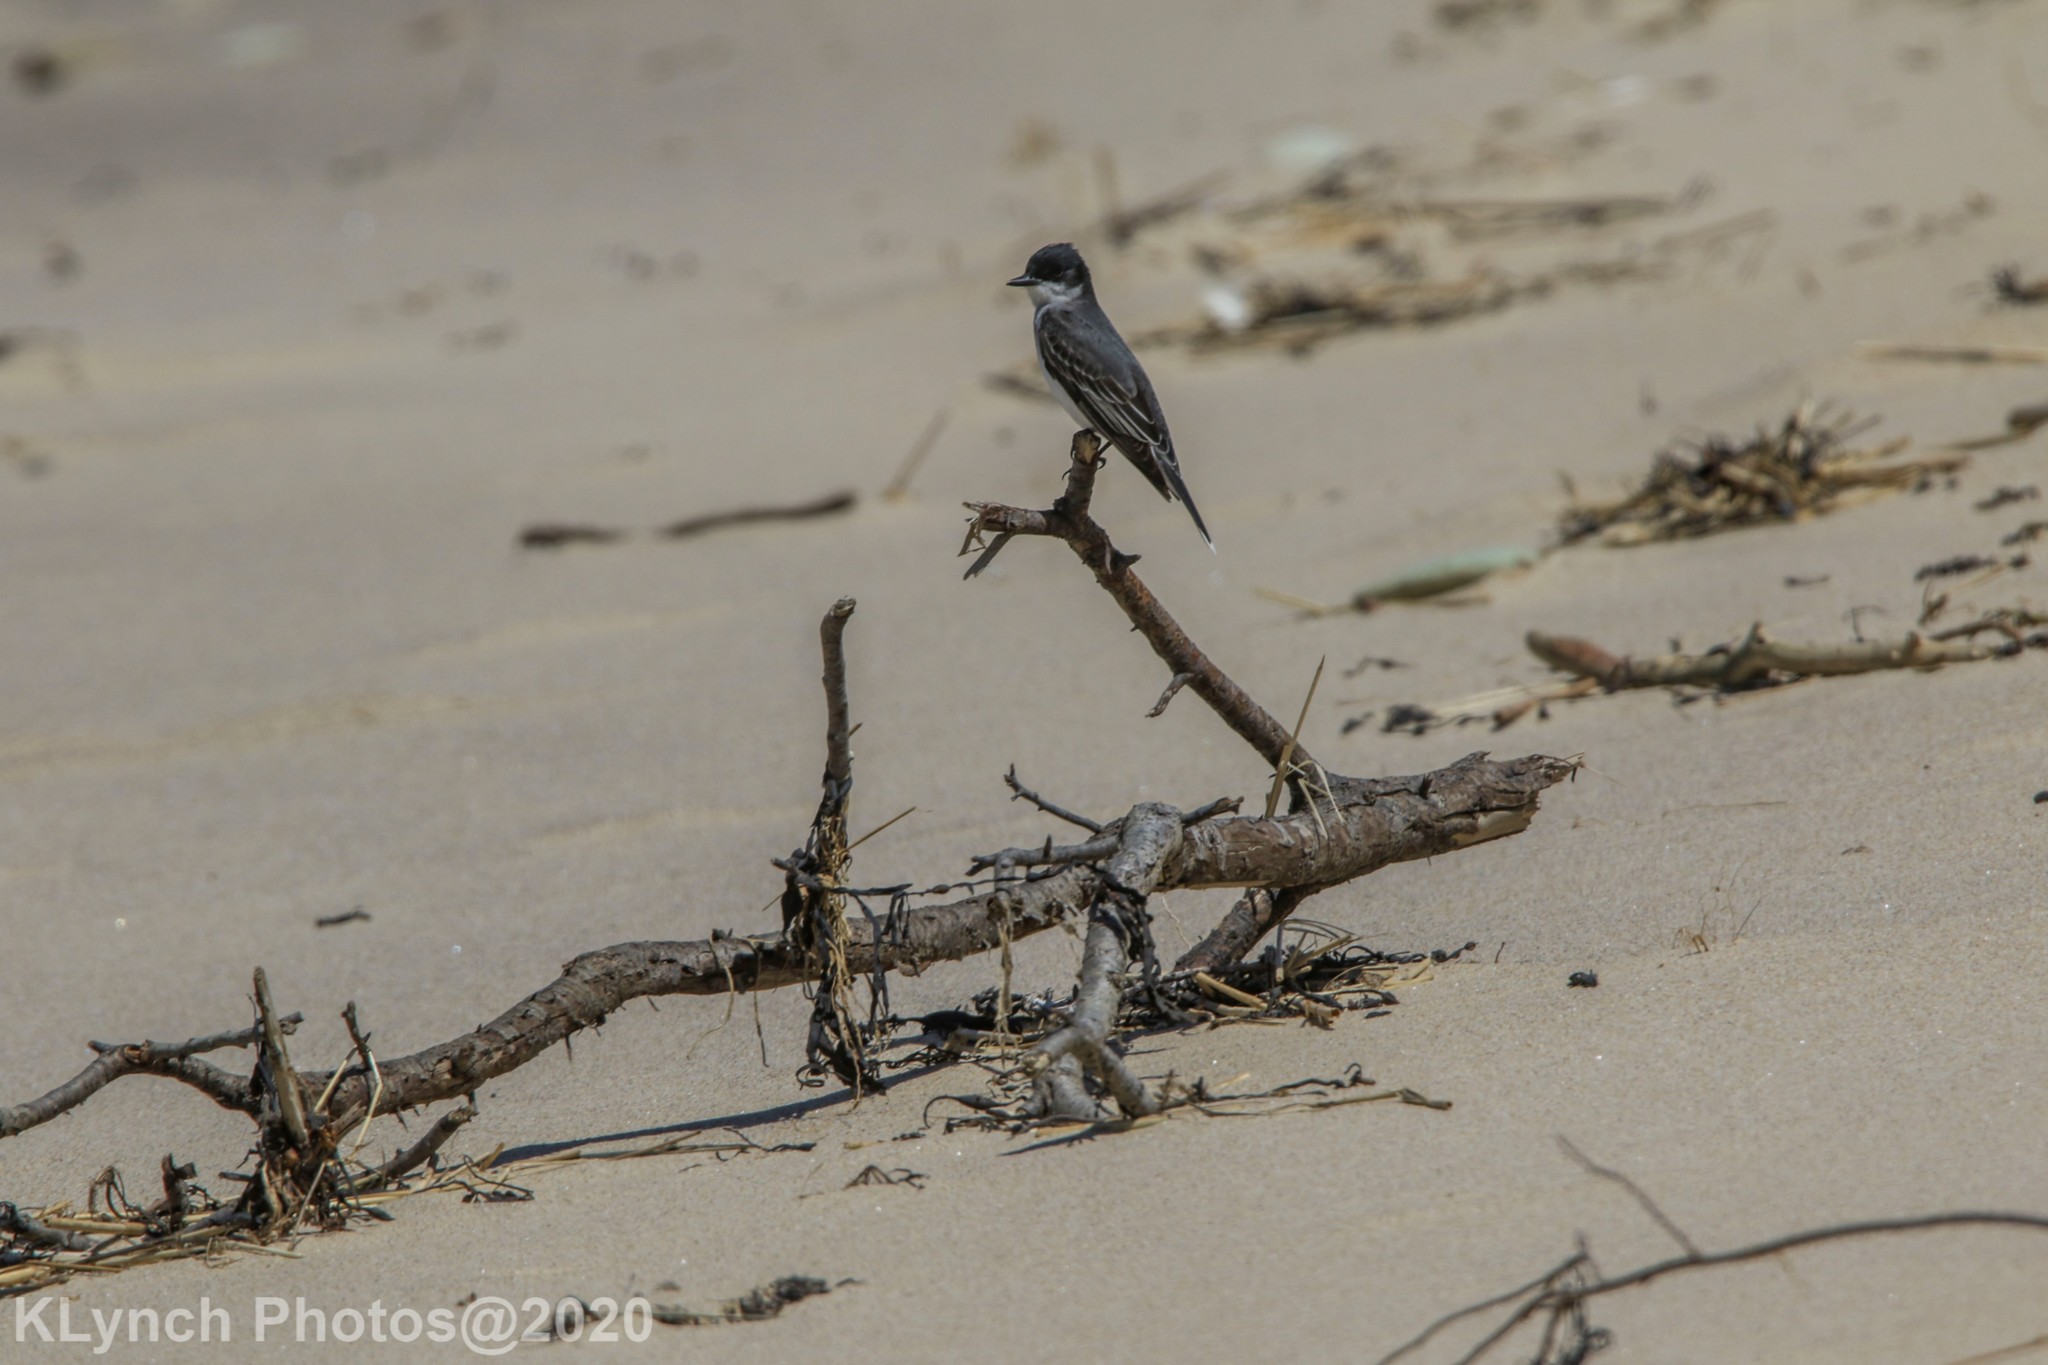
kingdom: Animalia
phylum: Chordata
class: Aves
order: Passeriformes
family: Tyrannidae
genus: Tyrannus
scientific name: Tyrannus tyrannus
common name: Eastern kingbird
